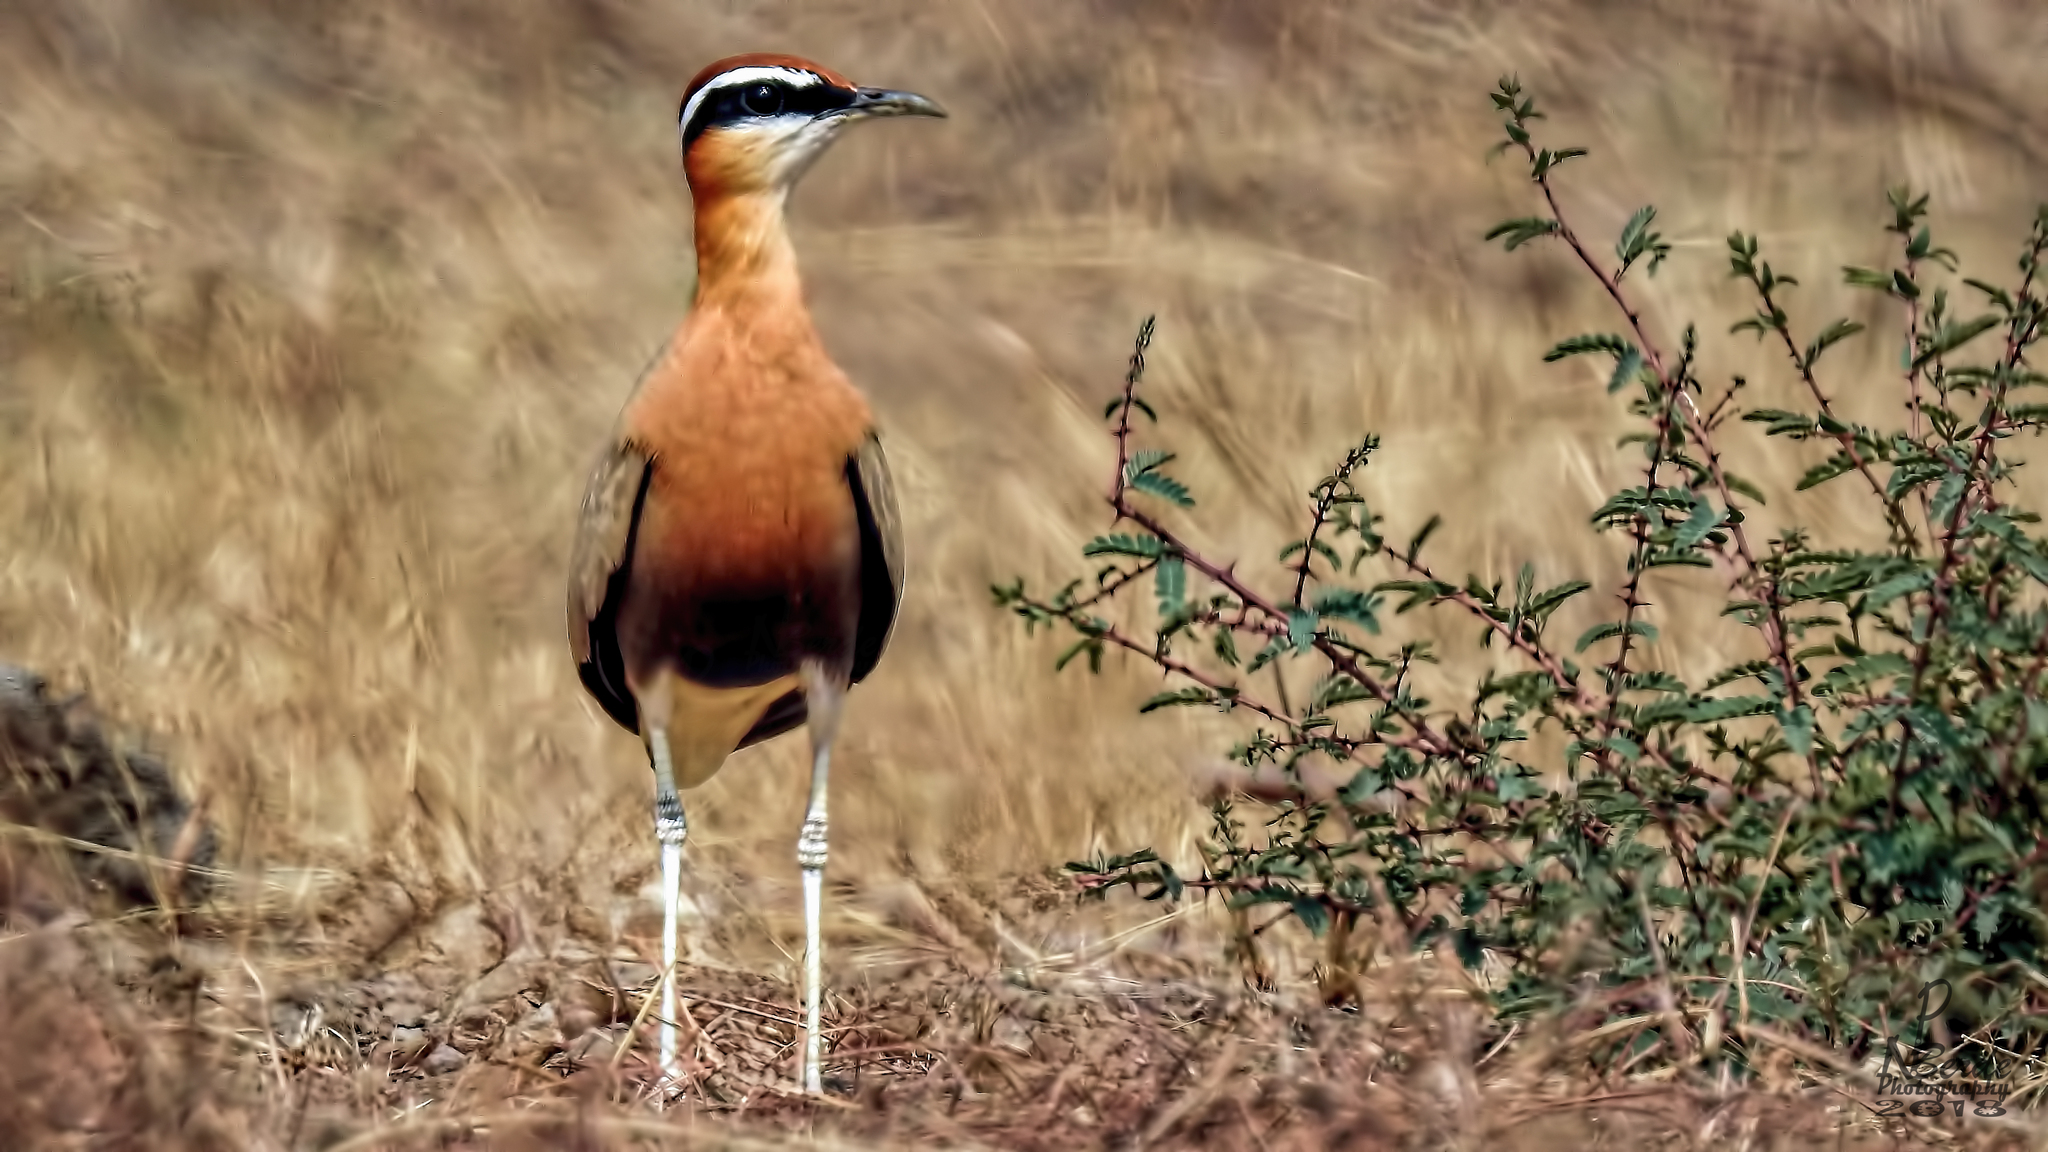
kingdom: Animalia
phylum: Chordata
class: Aves
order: Charadriiformes
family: Glareolidae
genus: Cursorius
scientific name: Cursorius coromandelicus
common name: Indian courser
